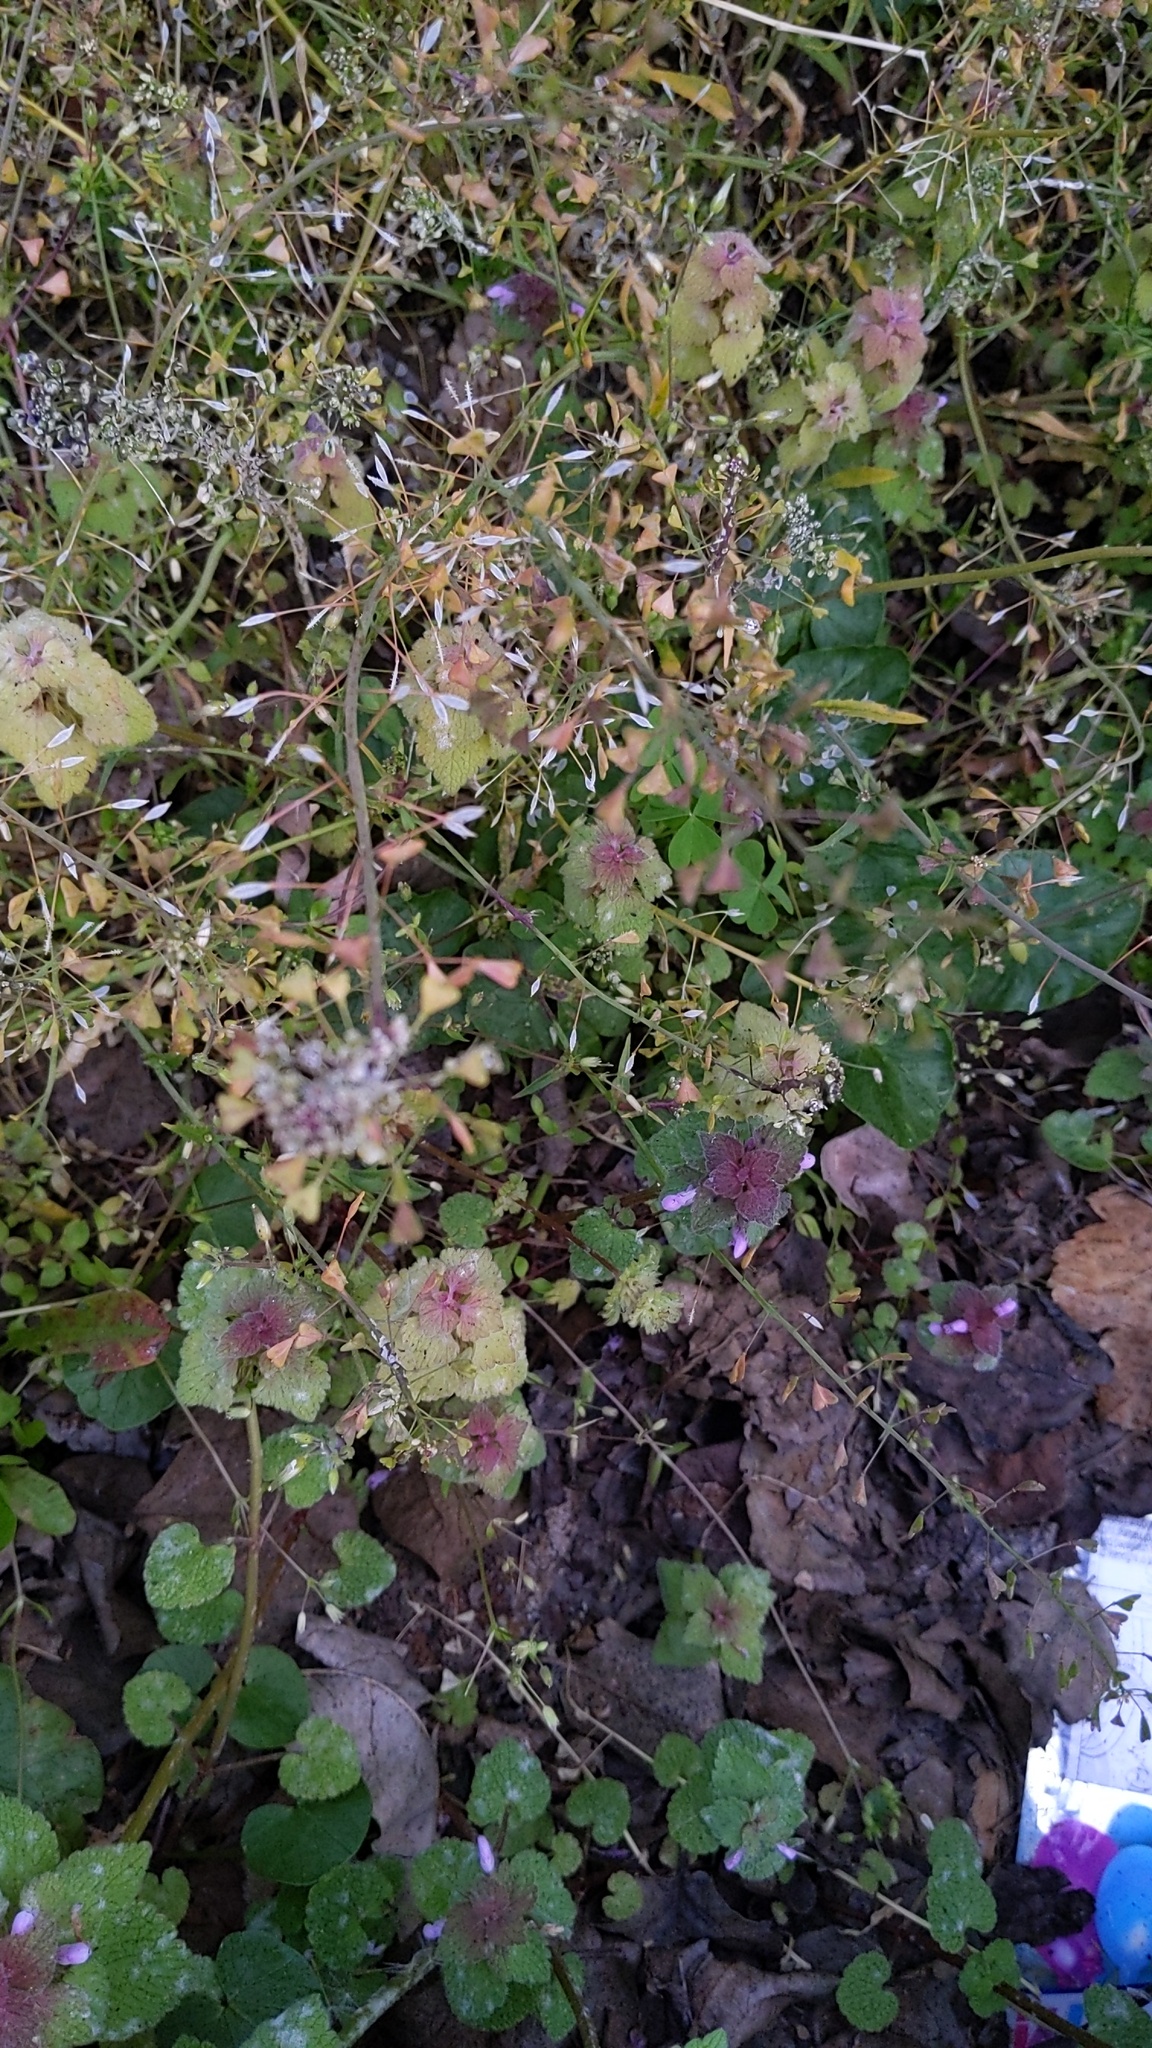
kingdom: Plantae
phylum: Tracheophyta
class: Magnoliopsida
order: Lamiales
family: Lamiaceae
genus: Lamium
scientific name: Lamium purpureum
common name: Red dead-nettle
